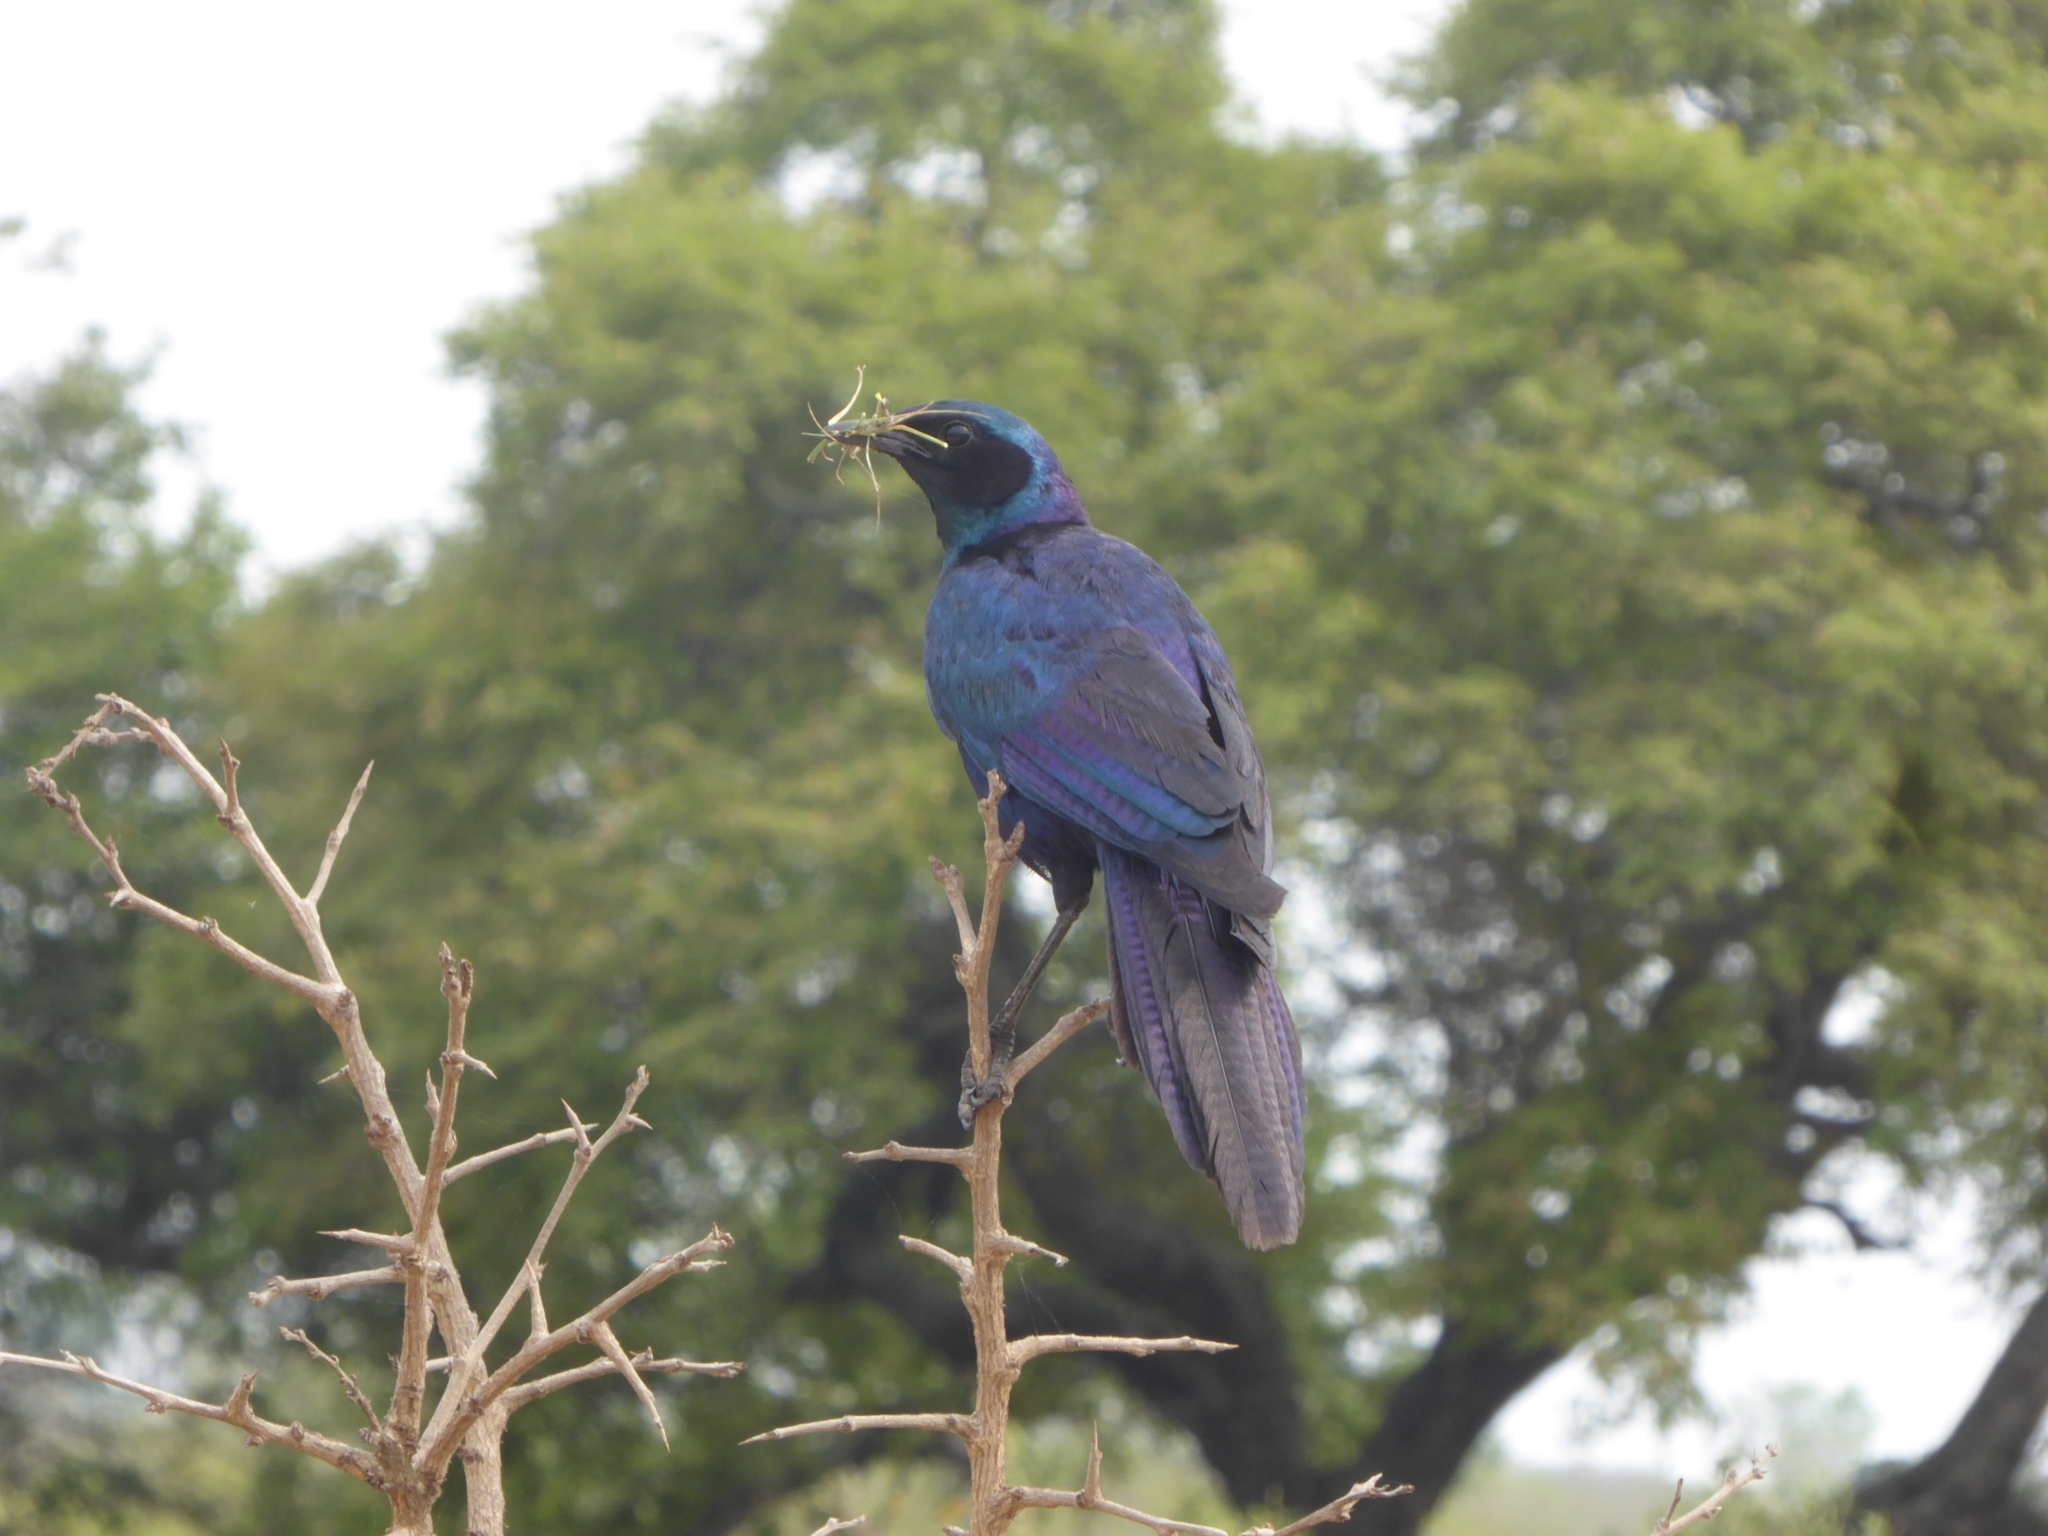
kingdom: Animalia
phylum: Chordata
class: Aves
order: Passeriformes
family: Sturnidae
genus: Lamprotornis
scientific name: Lamprotornis australis
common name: Burchell's starling
